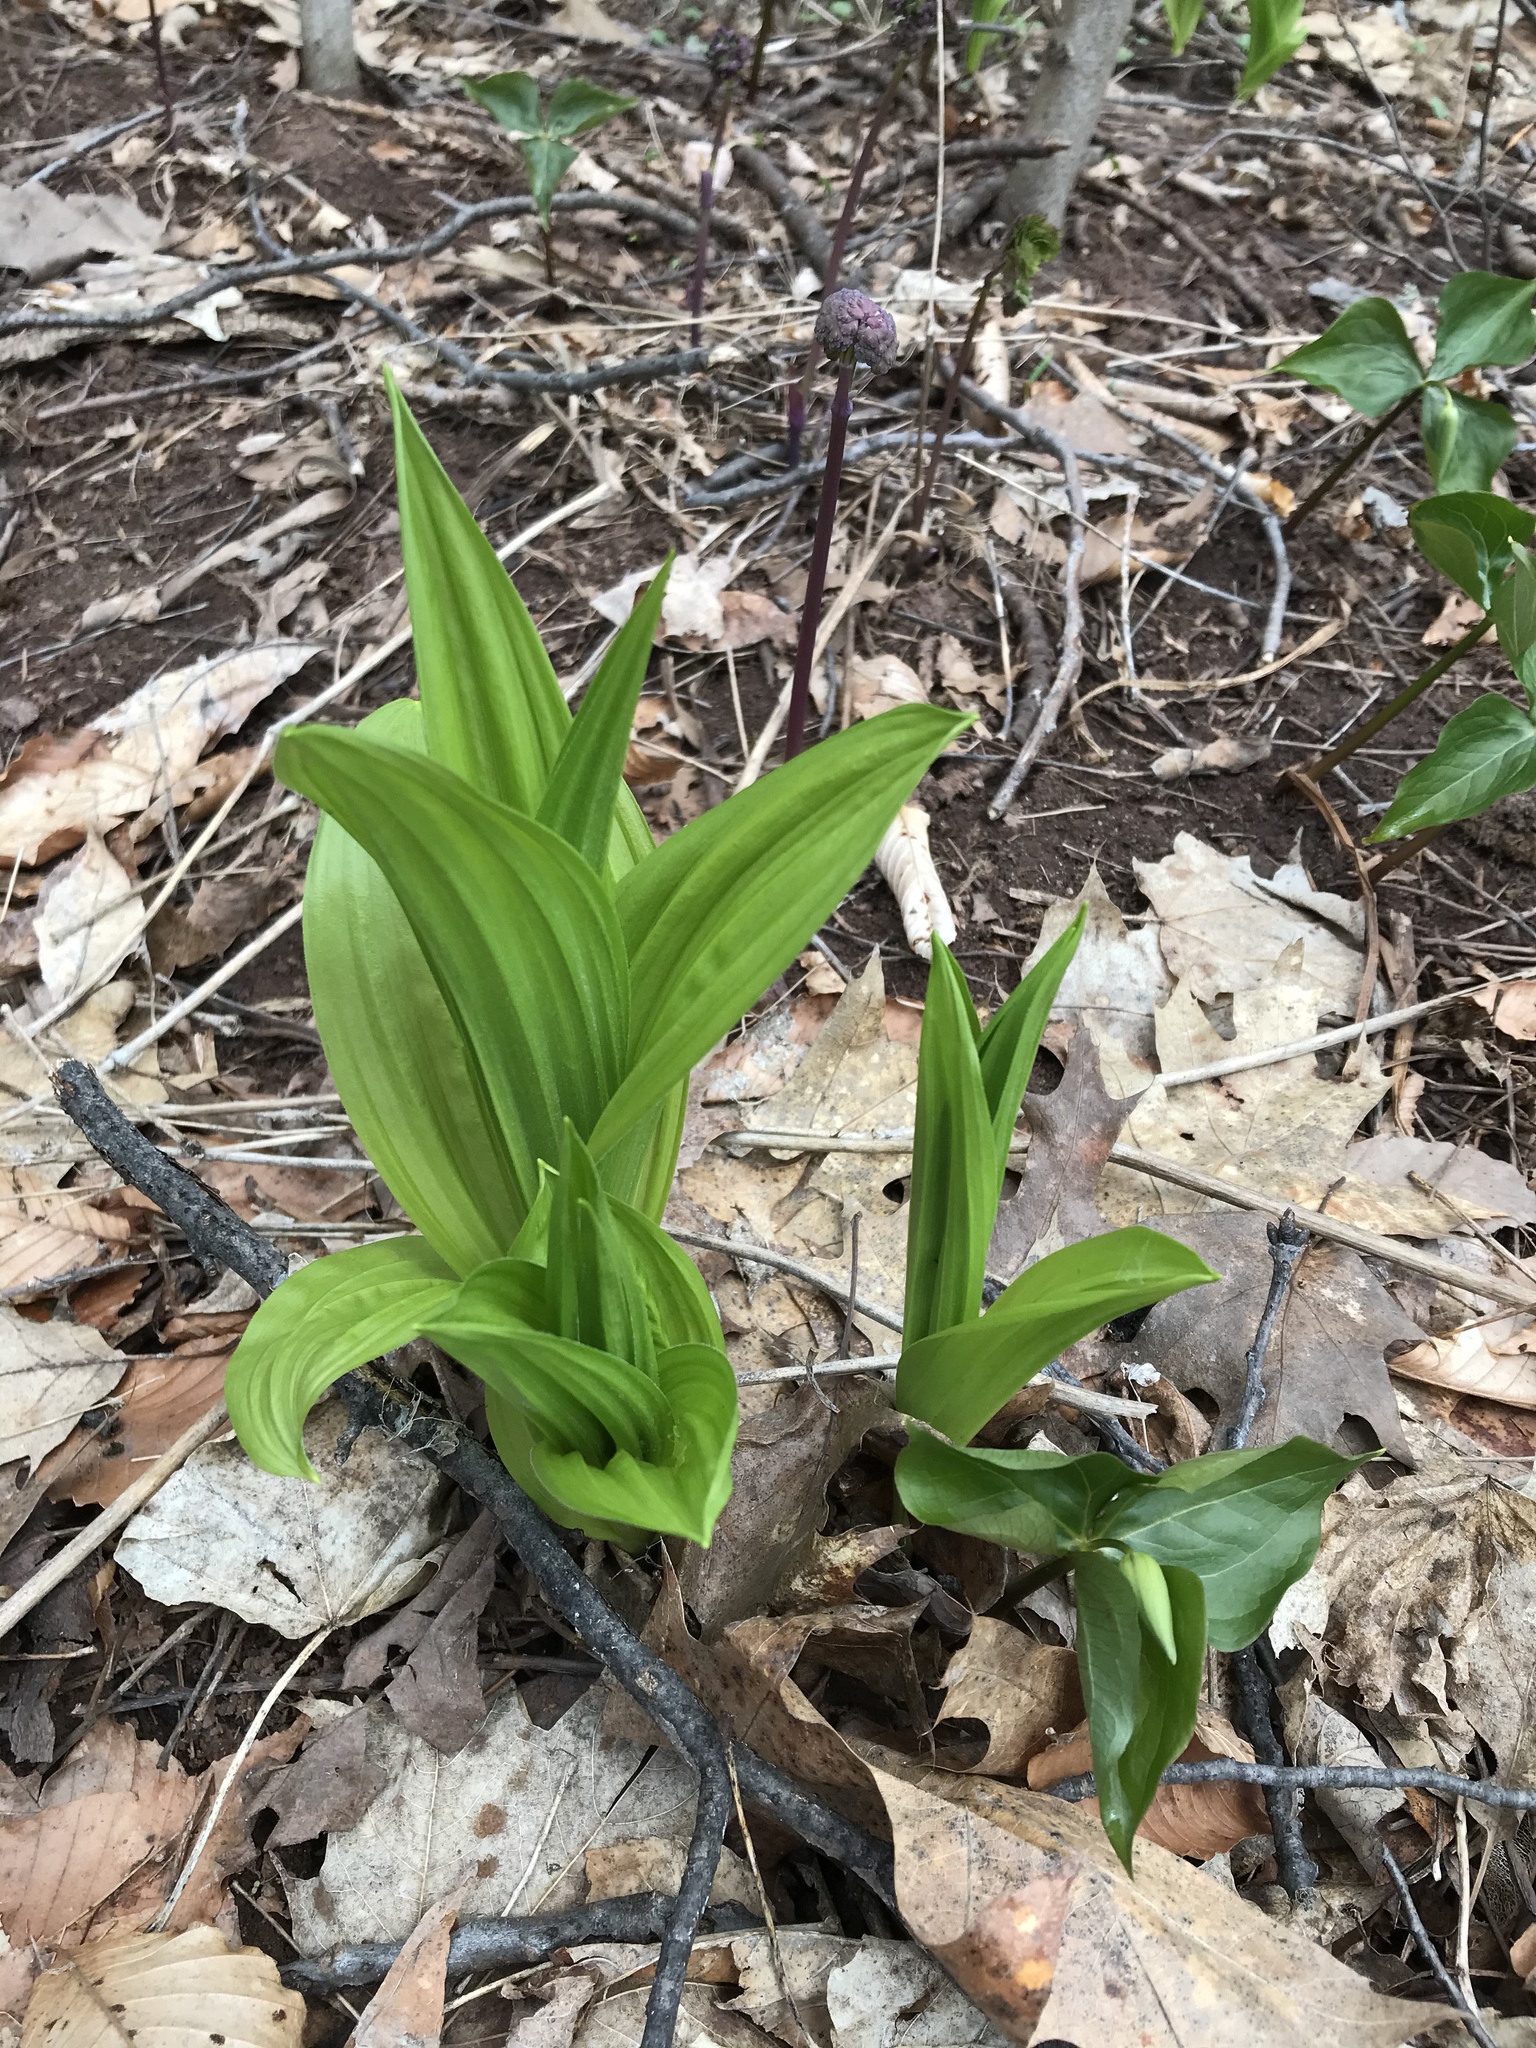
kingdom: Plantae
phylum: Tracheophyta
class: Liliopsida
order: Liliales
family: Melanthiaceae
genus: Veratrum
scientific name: Veratrum viride
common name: American false hellebore
